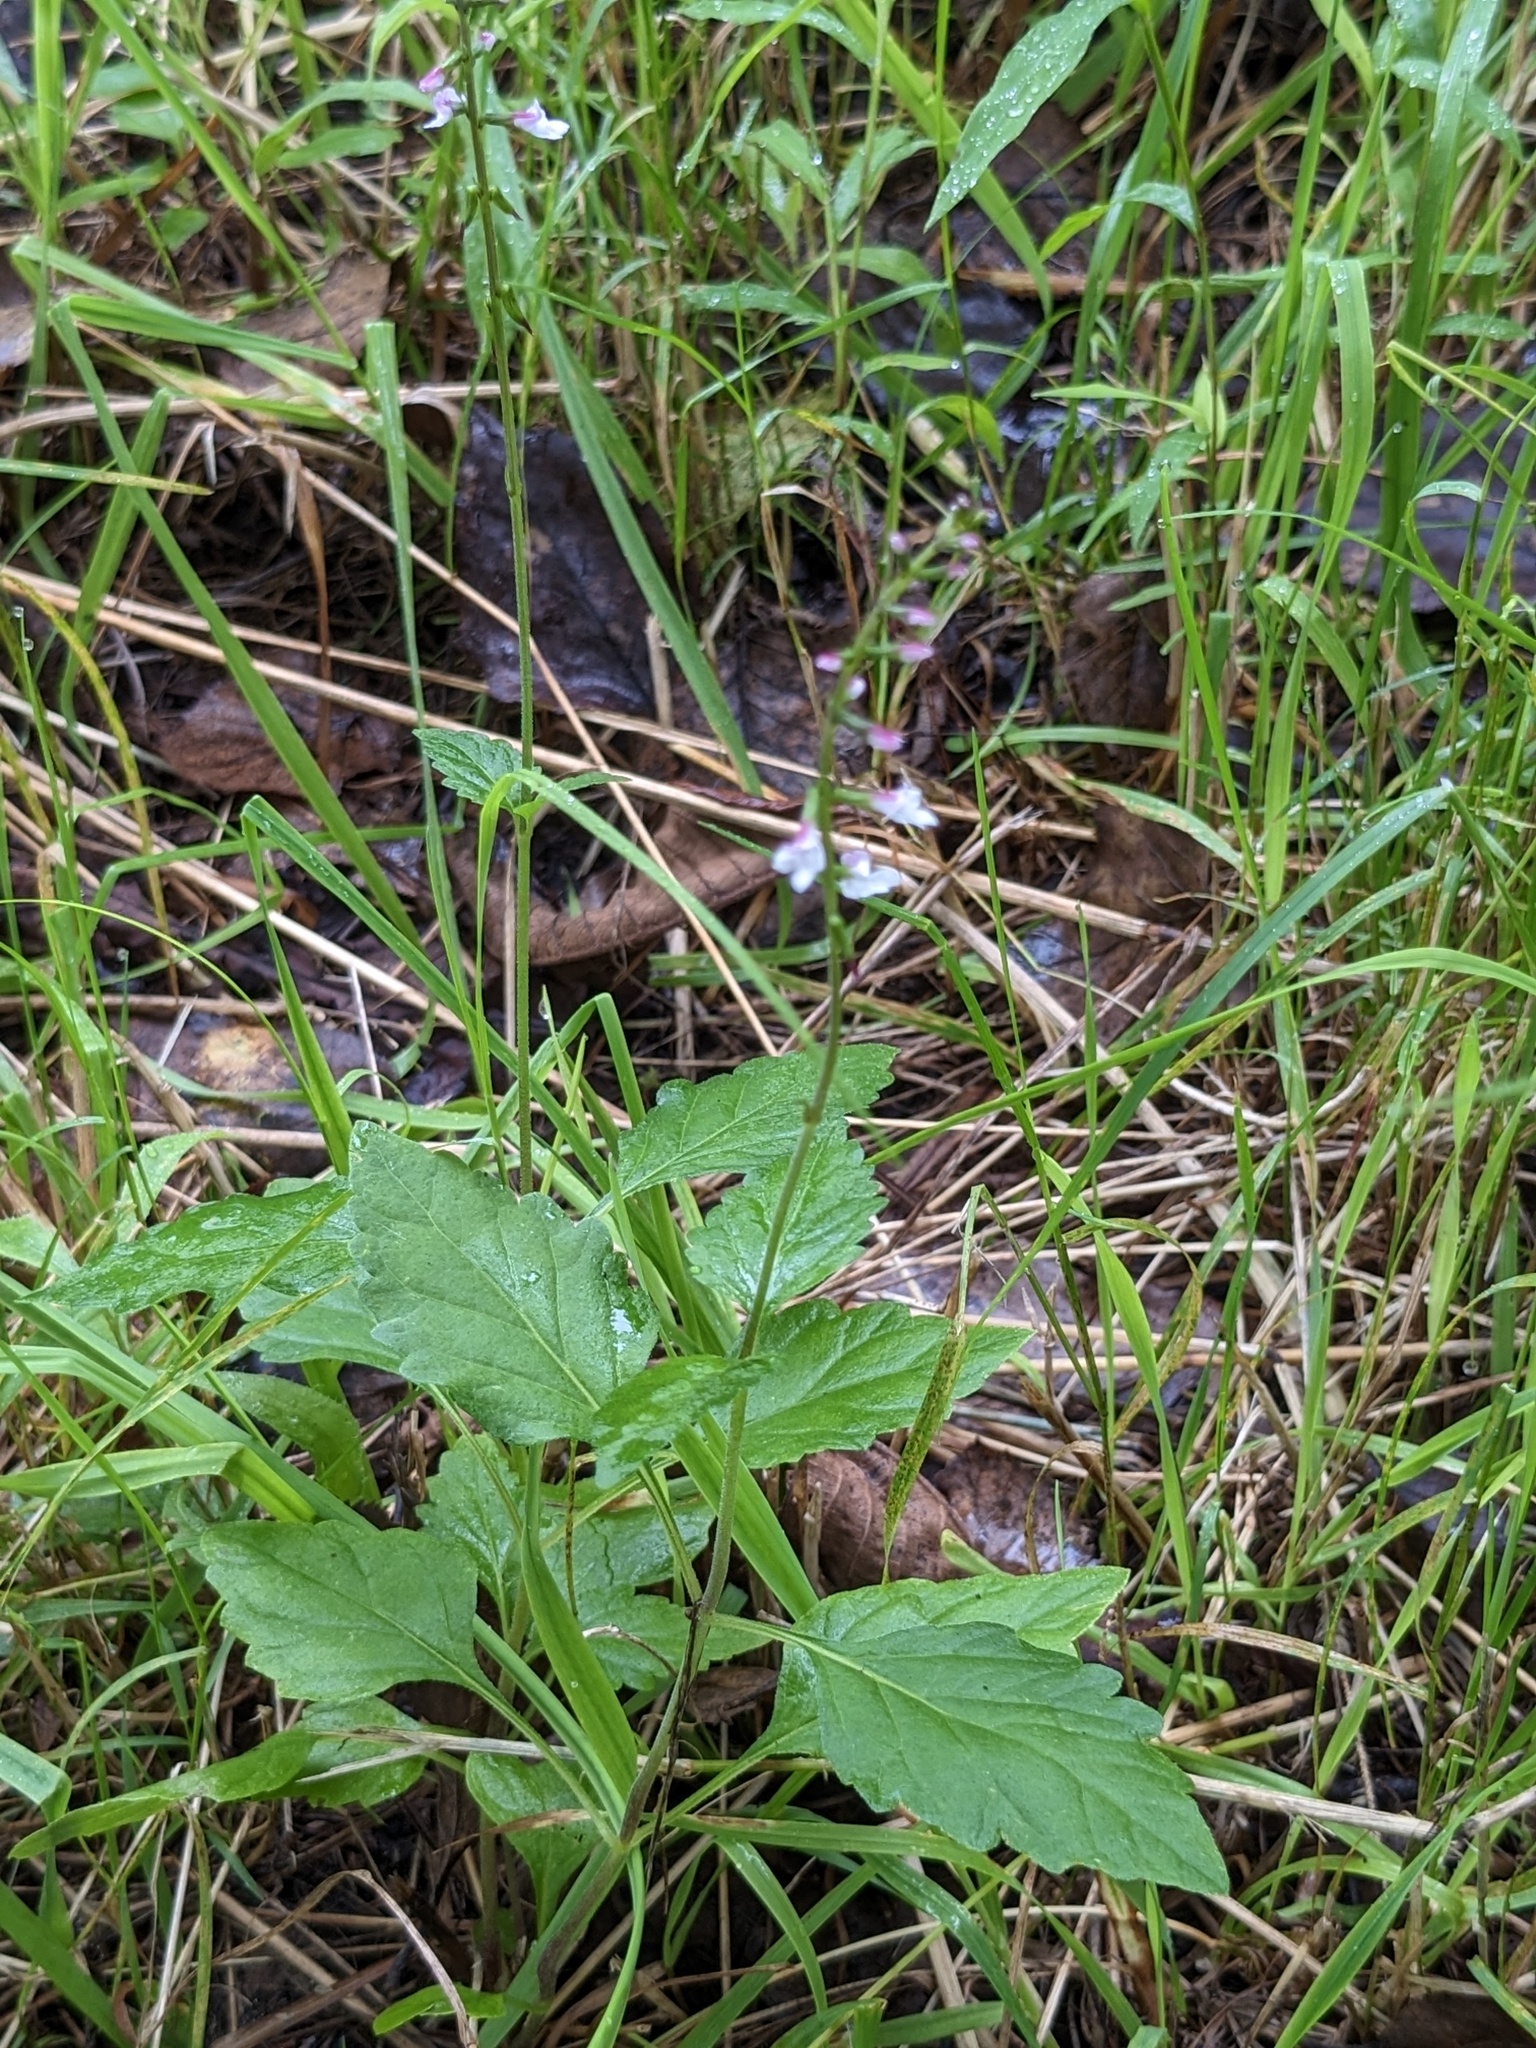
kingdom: Plantae
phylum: Tracheophyta
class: Magnoliopsida
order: Lamiales
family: Phrymaceae
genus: Phryma
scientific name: Phryma nana
